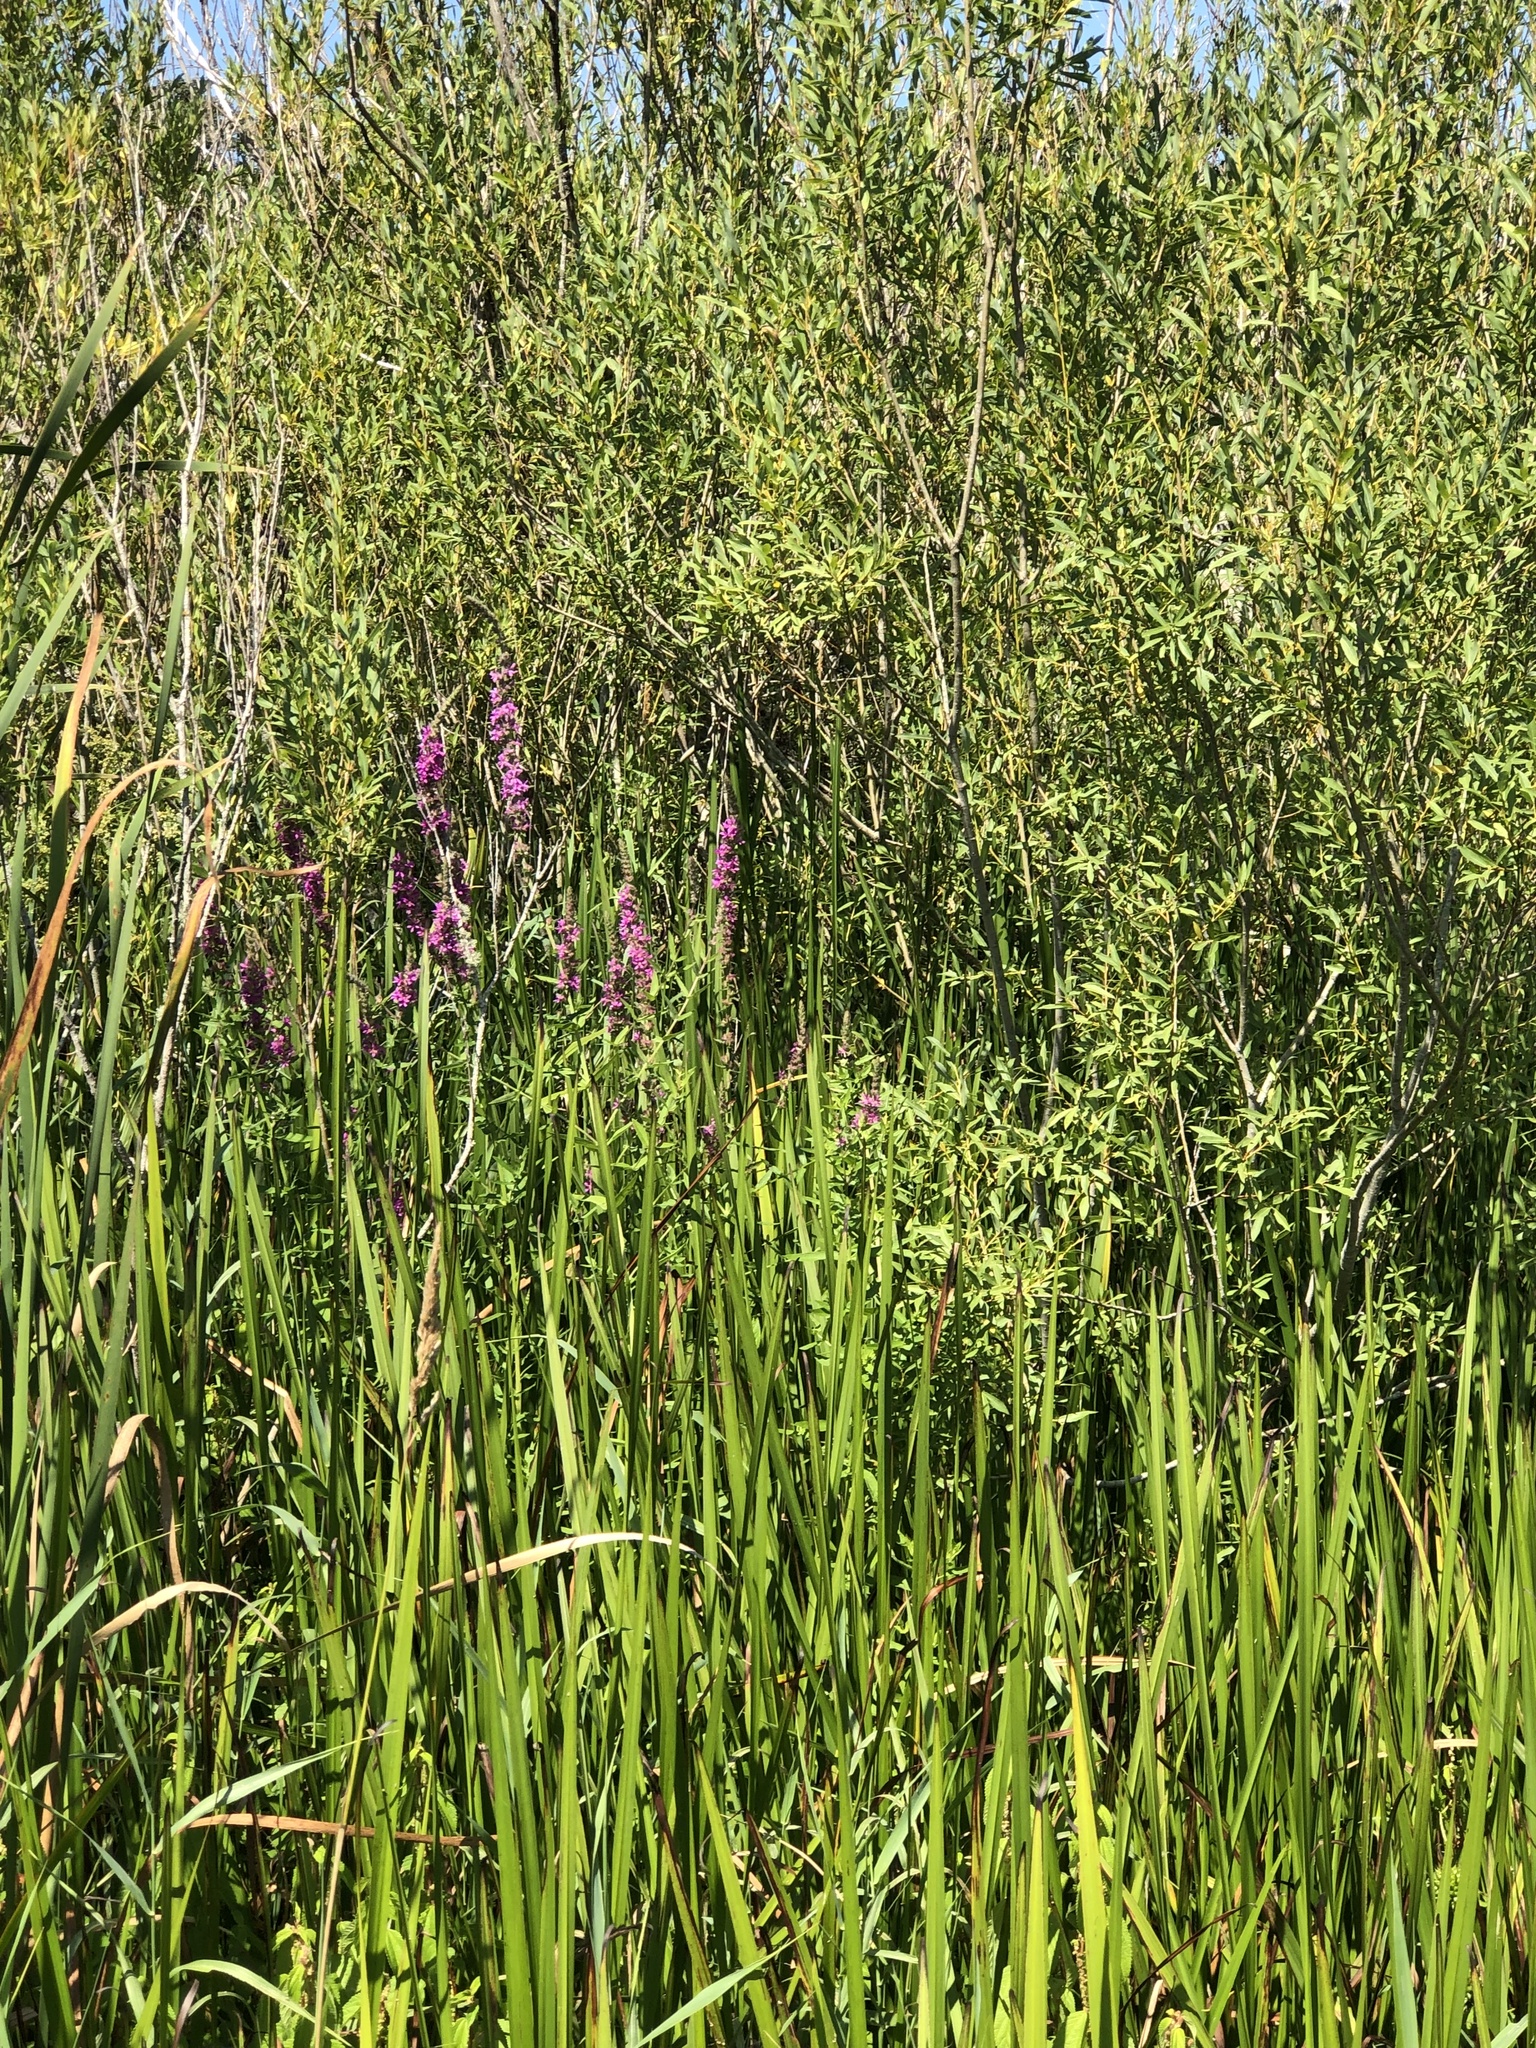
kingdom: Plantae
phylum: Tracheophyta
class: Magnoliopsida
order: Myrtales
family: Lythraceae
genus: Lythrum
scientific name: Lythrum salicaria
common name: Purple loosestrife
